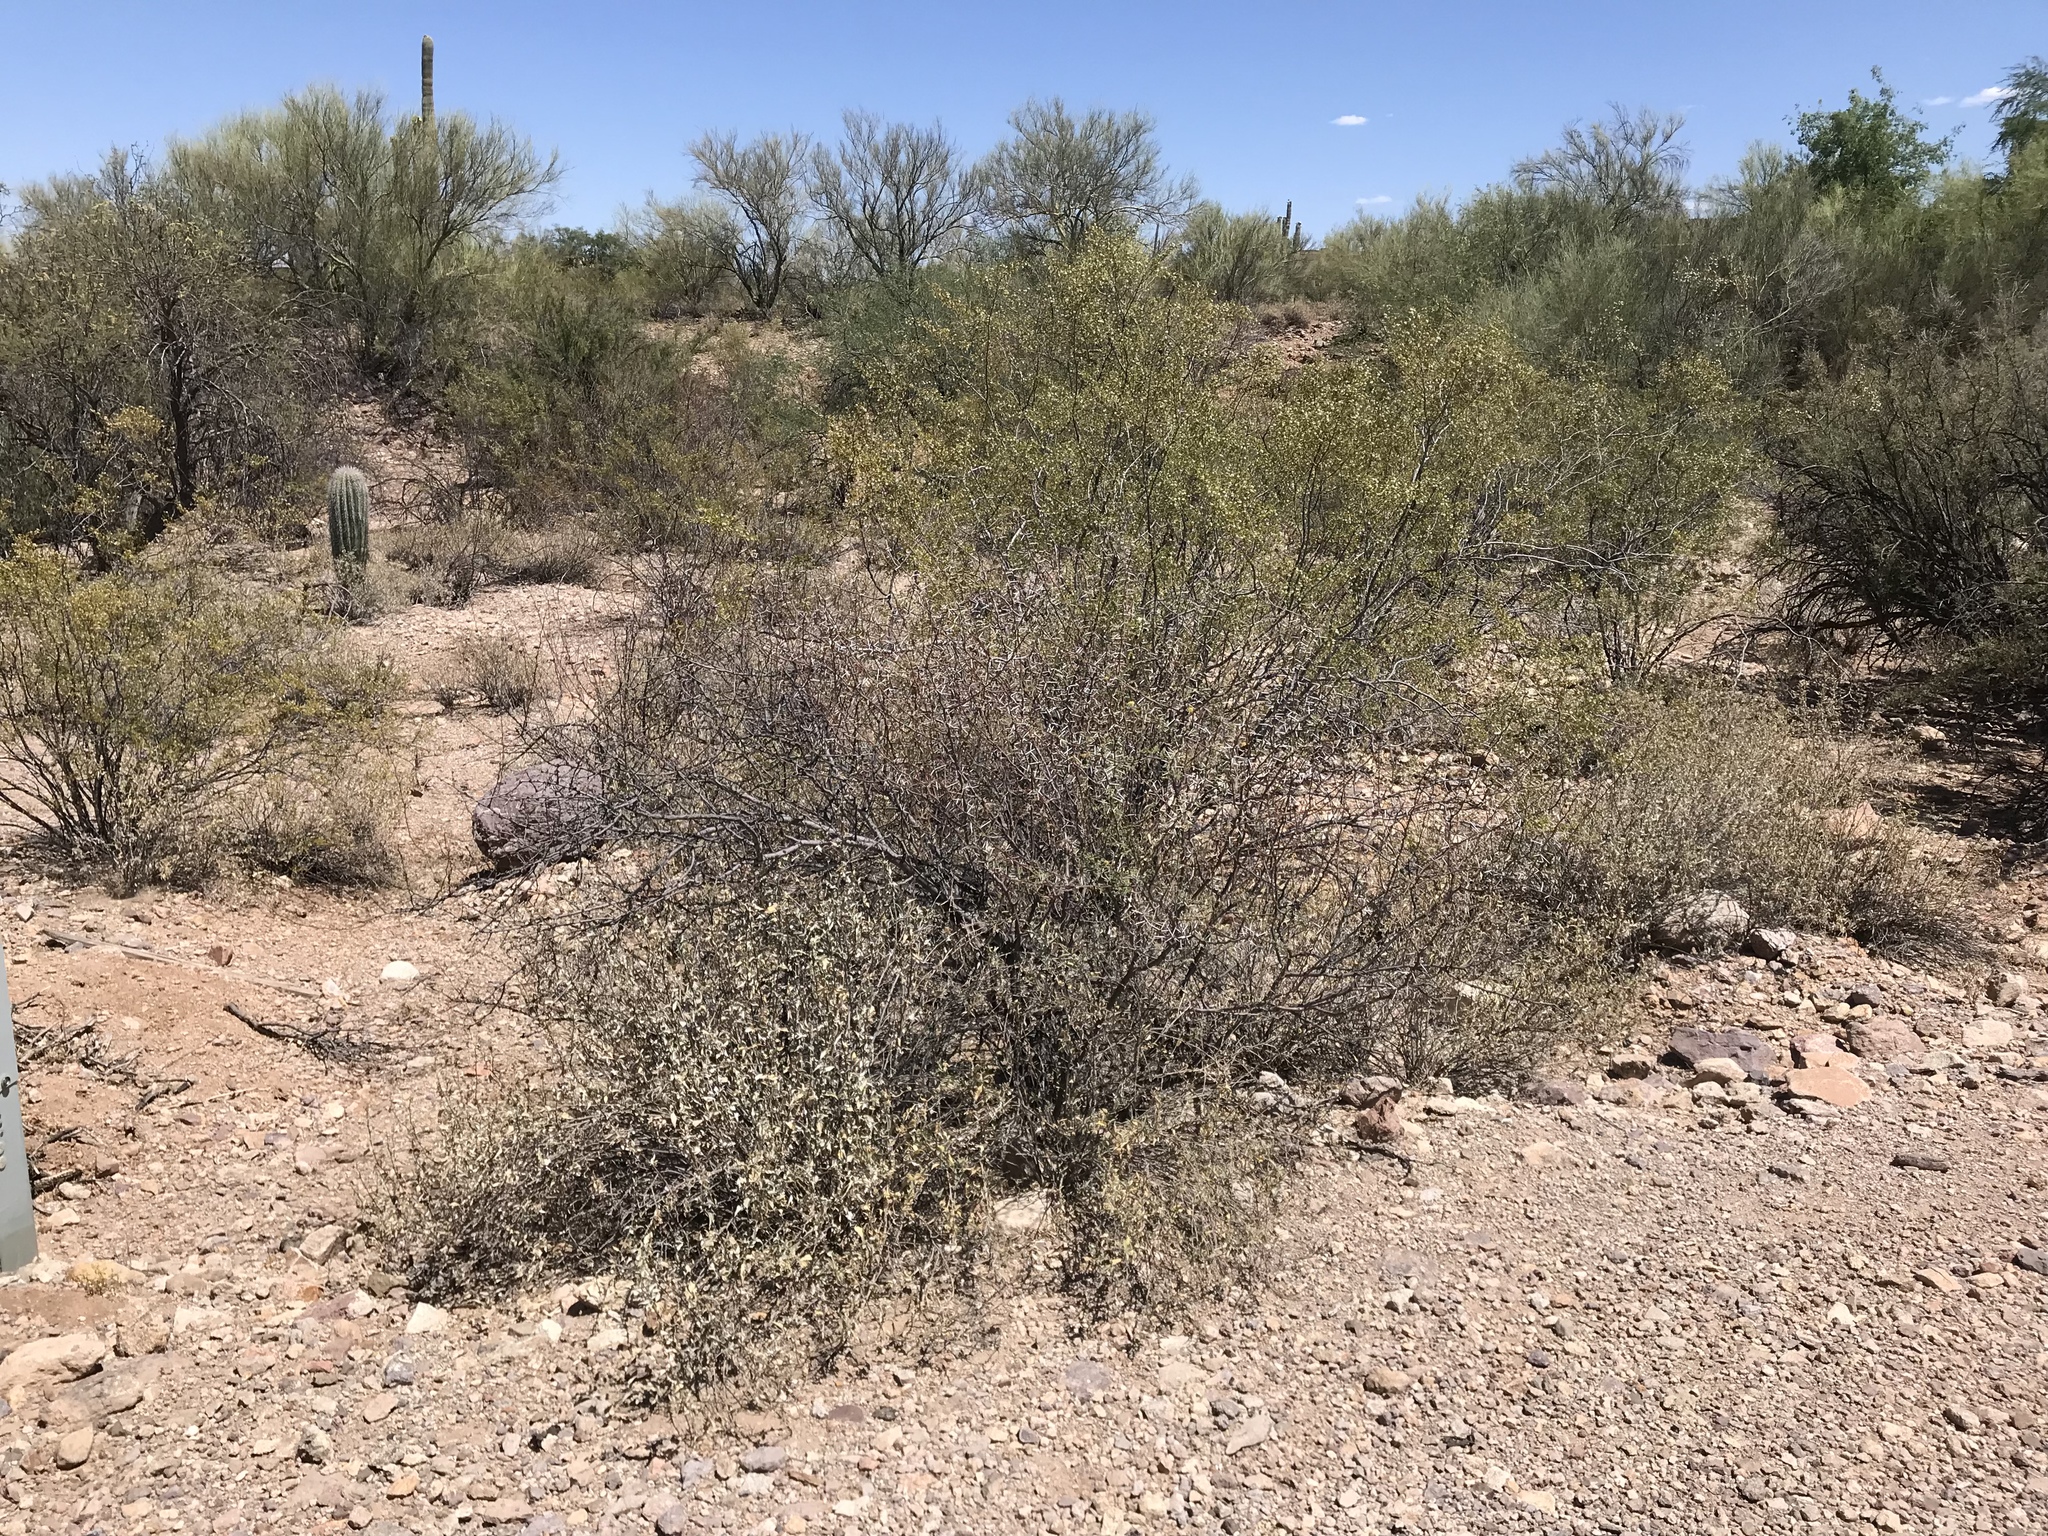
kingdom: Plantae
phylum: Tracheophyta
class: Magnoliopsida
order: Fabales
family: Fabaceae
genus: Vachellia
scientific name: Vachellia constricta
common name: Mescat acacia
